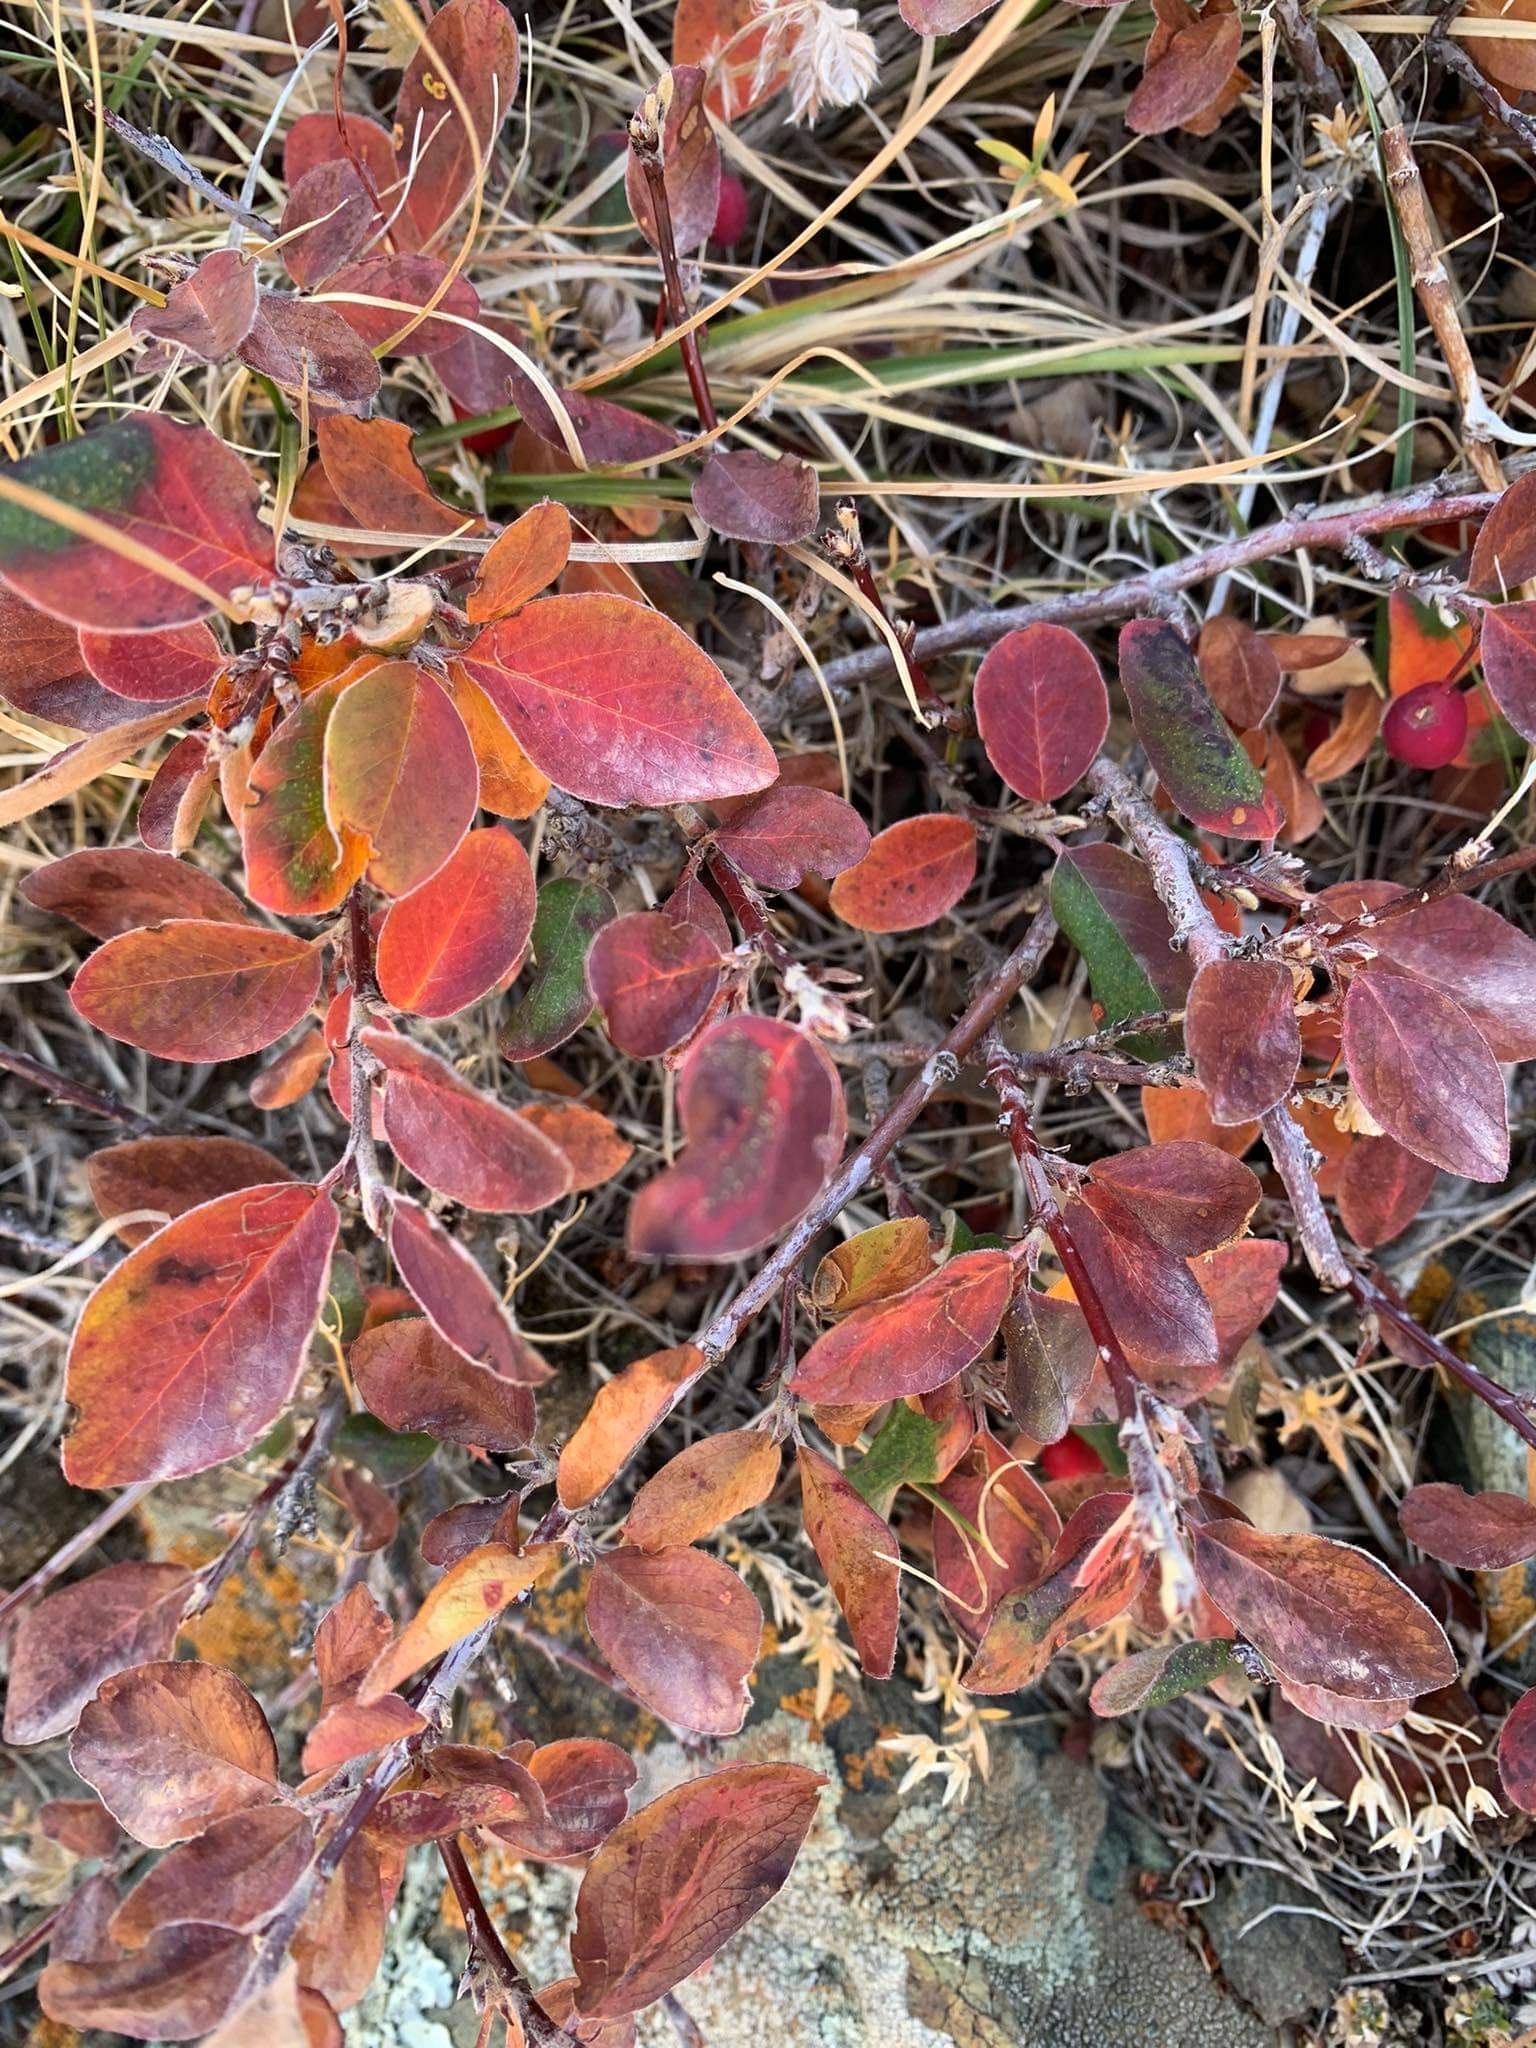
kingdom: Plantae
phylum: Tracheophyta
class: Magnoliopsida
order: Rosales
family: Rosaceae
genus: Rosa
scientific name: Rosa acicularis
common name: Prickly rose
